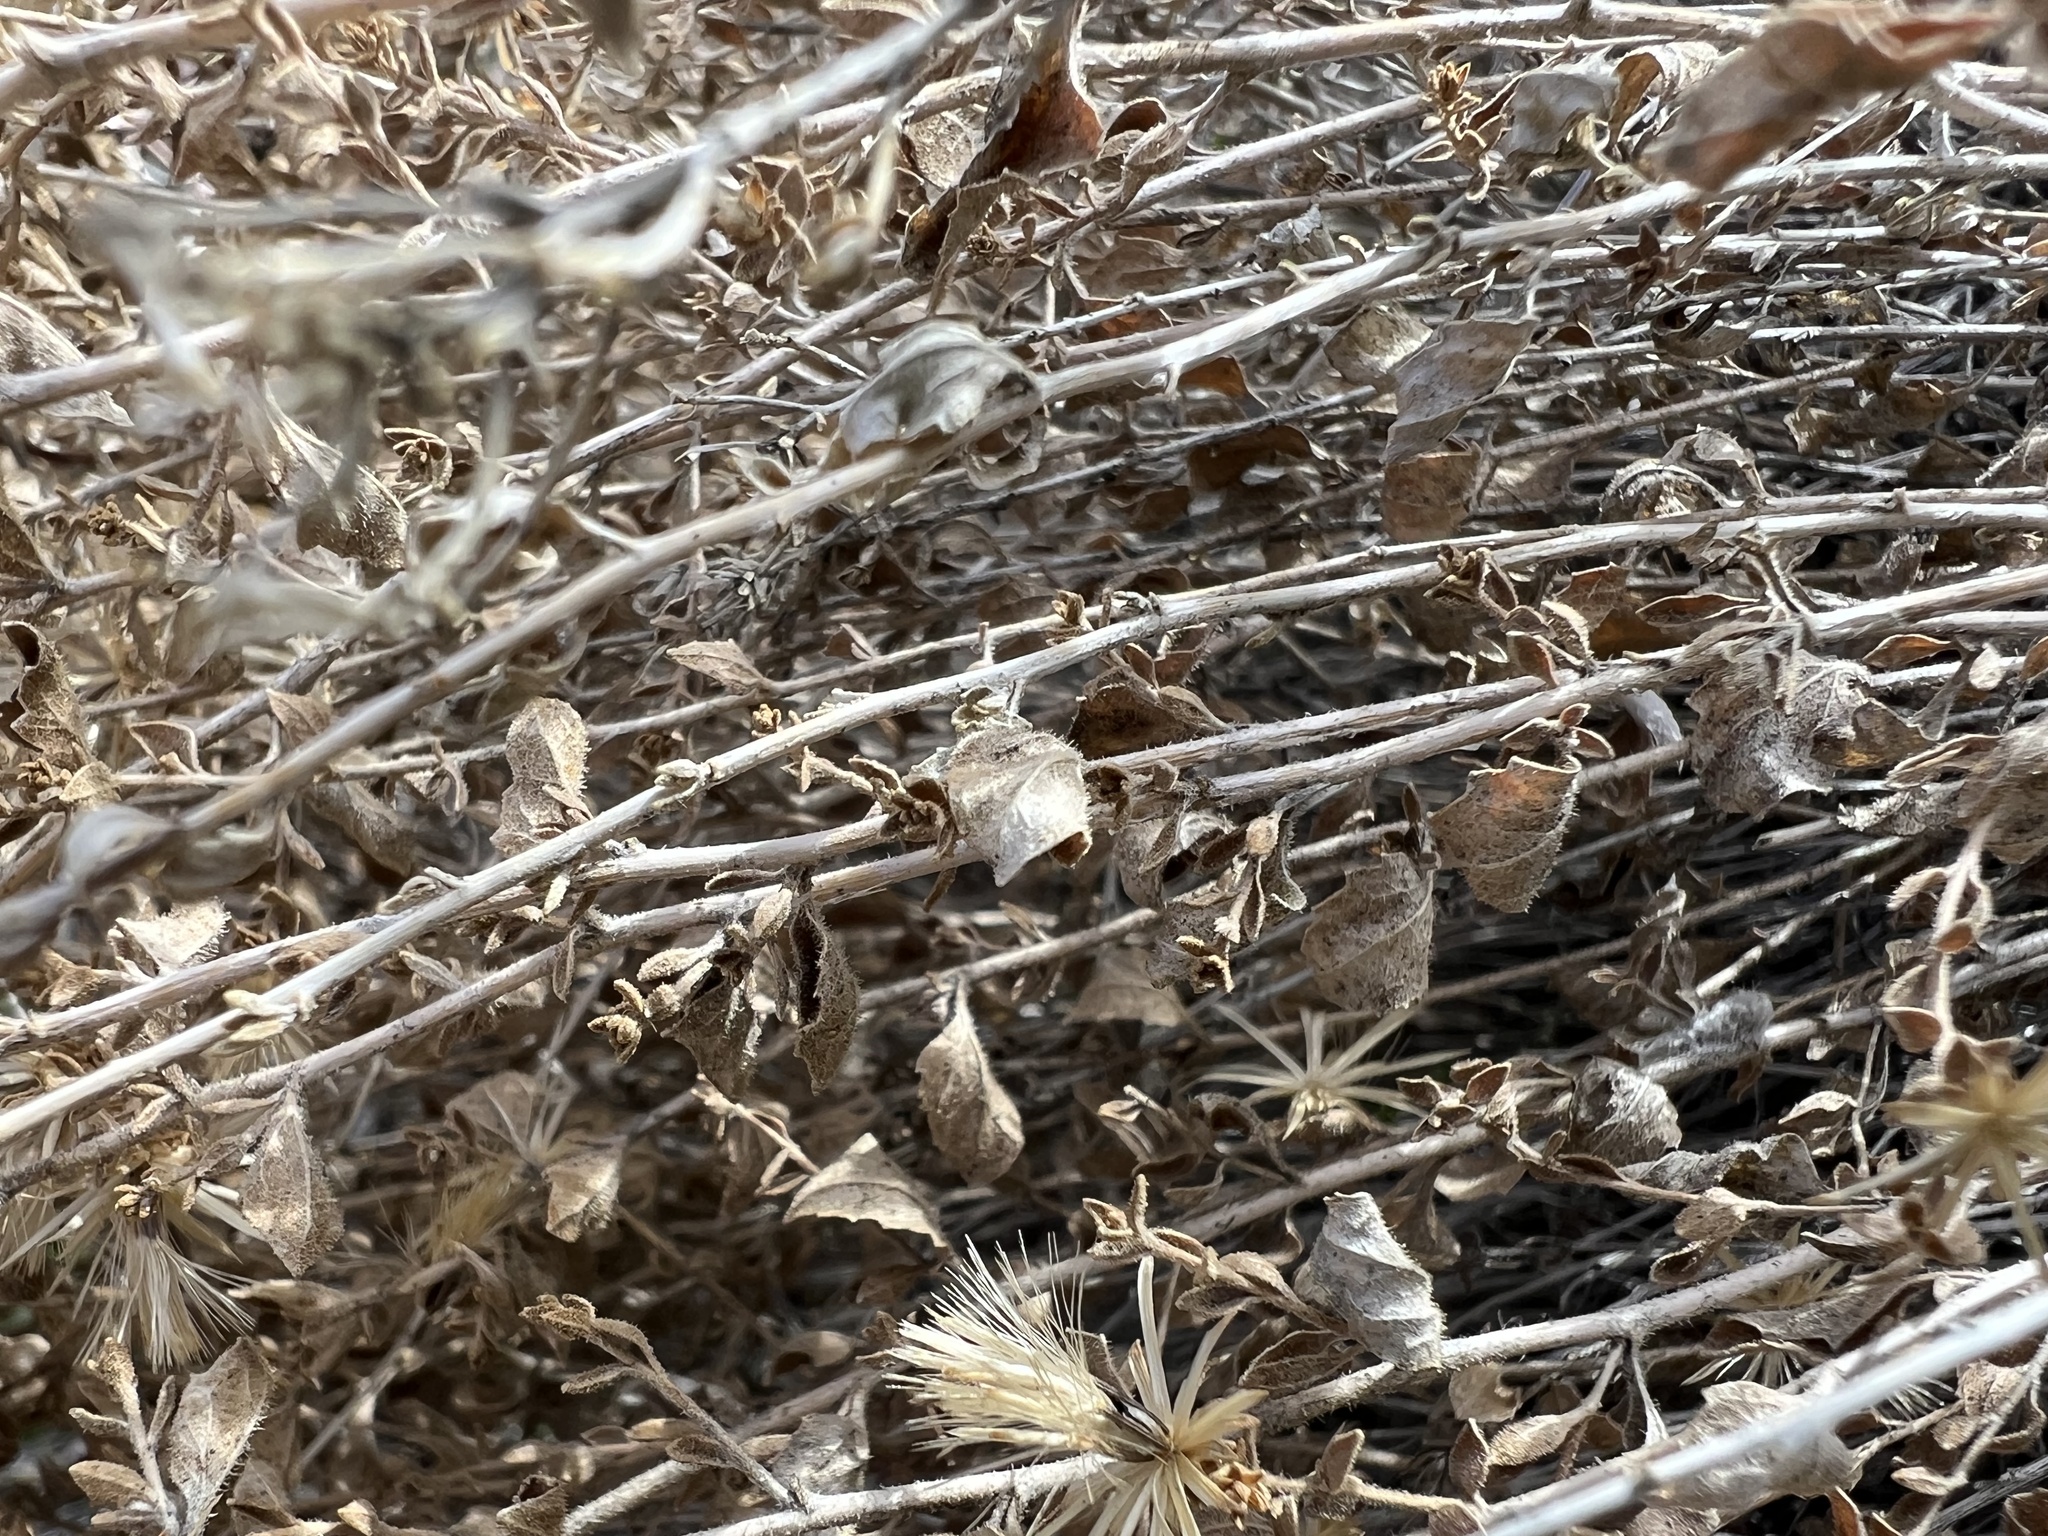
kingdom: Plantae
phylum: Tracheophyta
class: Magnoliopsida
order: Asterales
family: Asteraceae
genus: Brickellia
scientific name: Brickellia microphylla
